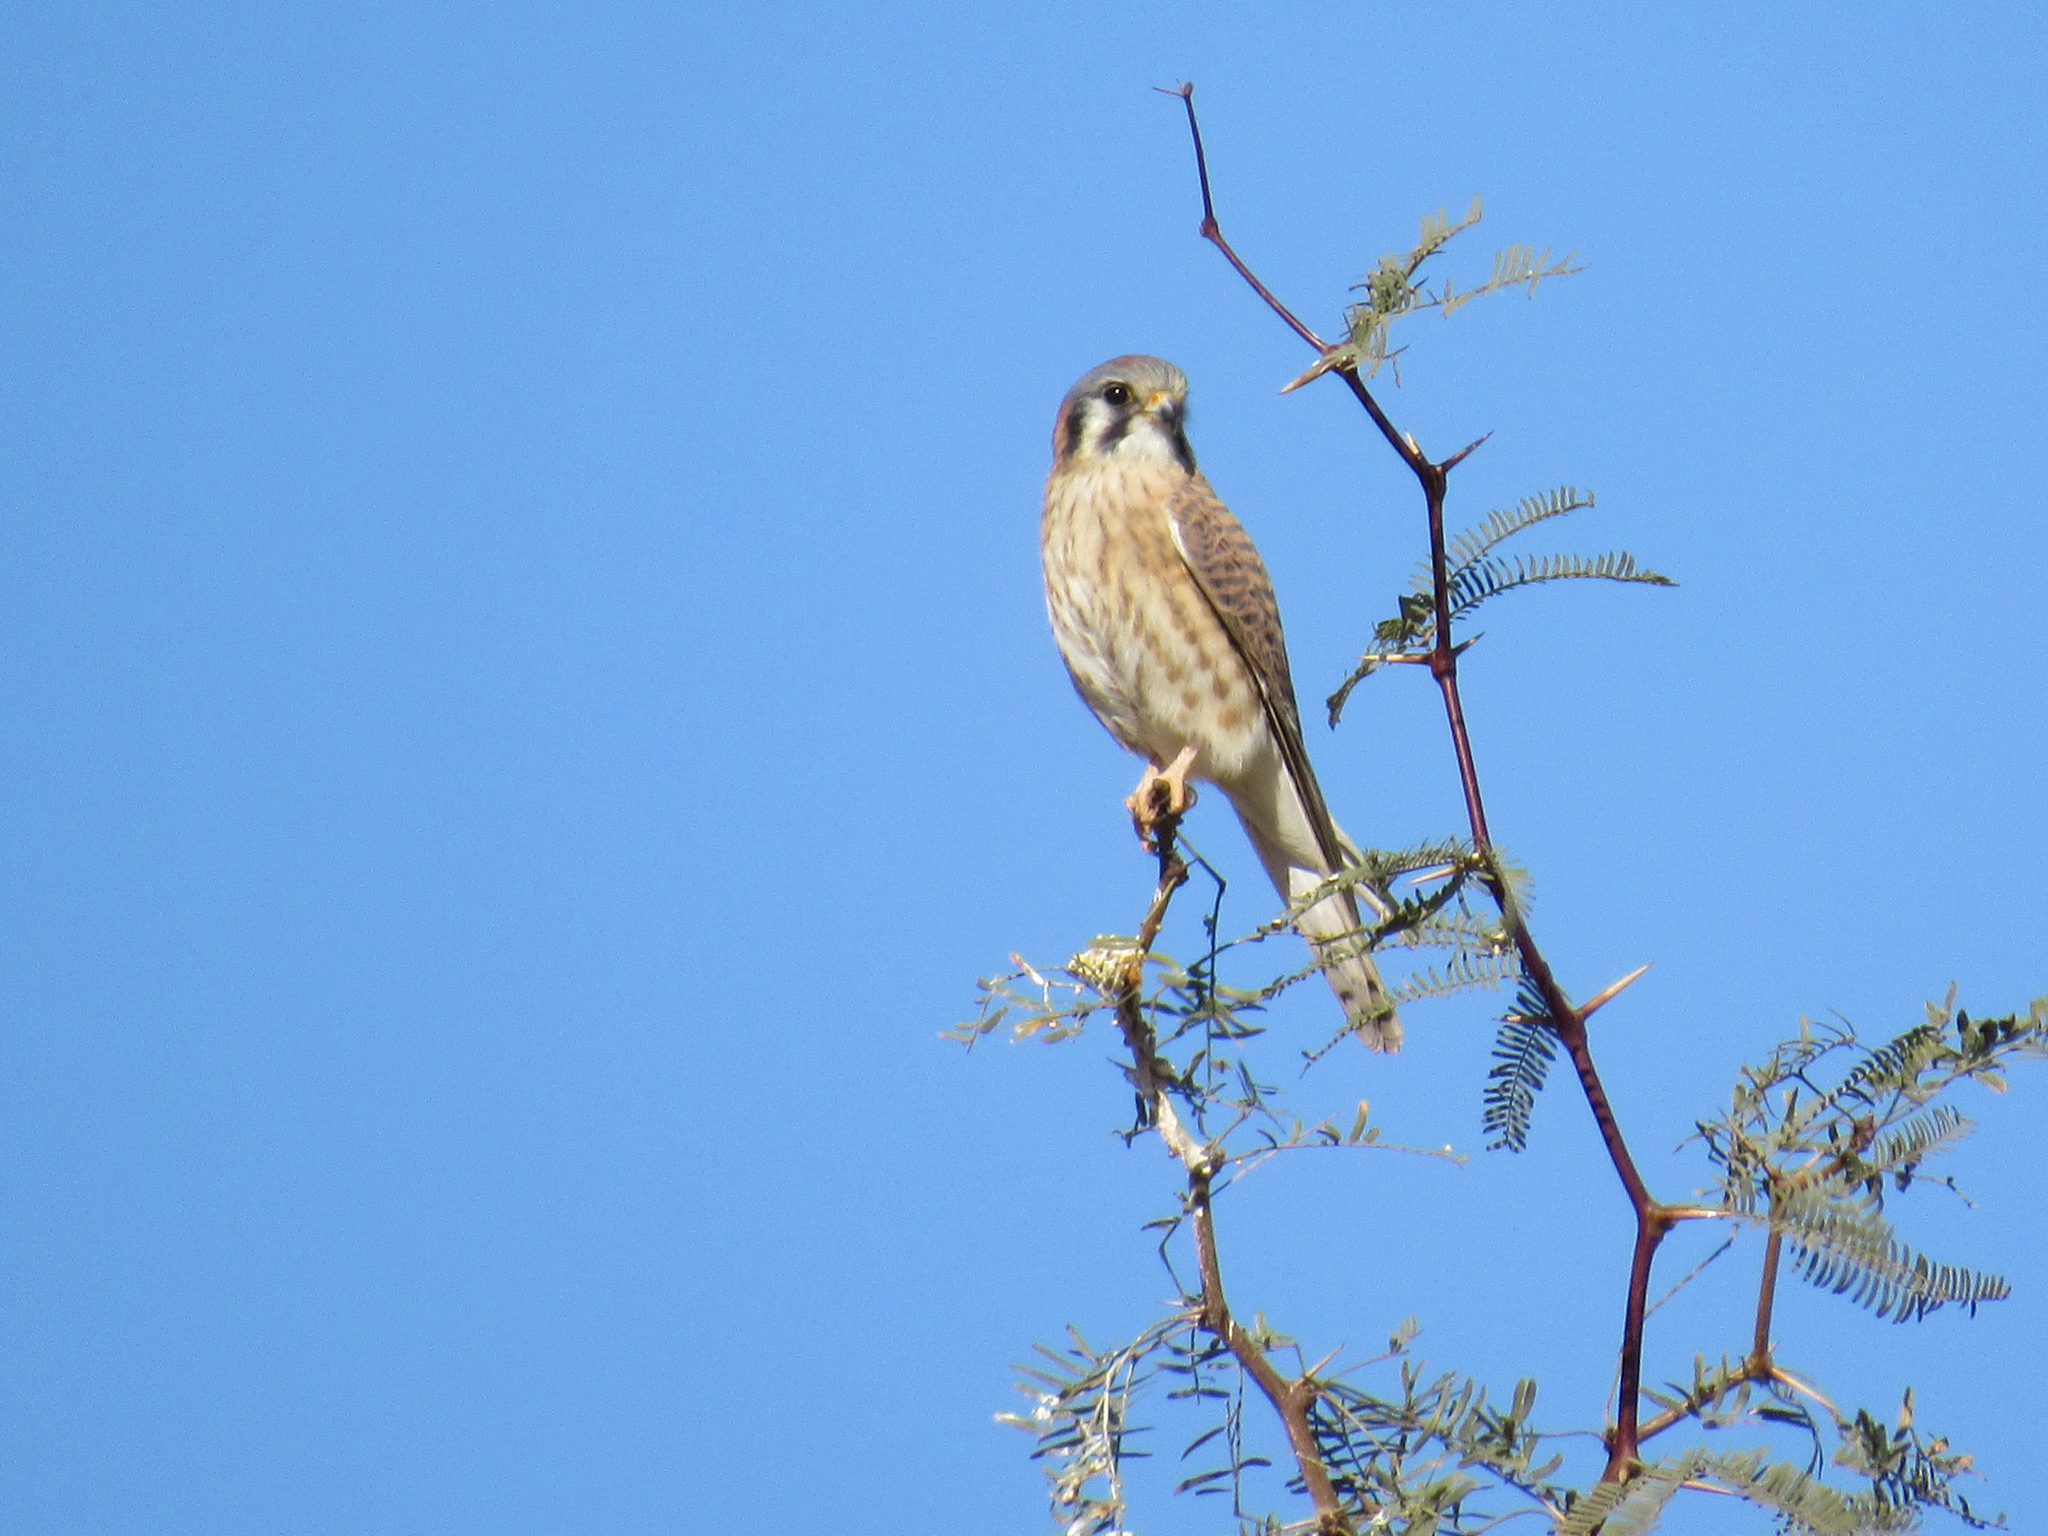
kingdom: Animalia
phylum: Chordata
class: Aves
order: Falconiformes
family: Falconidae
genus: Falco
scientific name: Falco sparverius
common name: American kestrel
